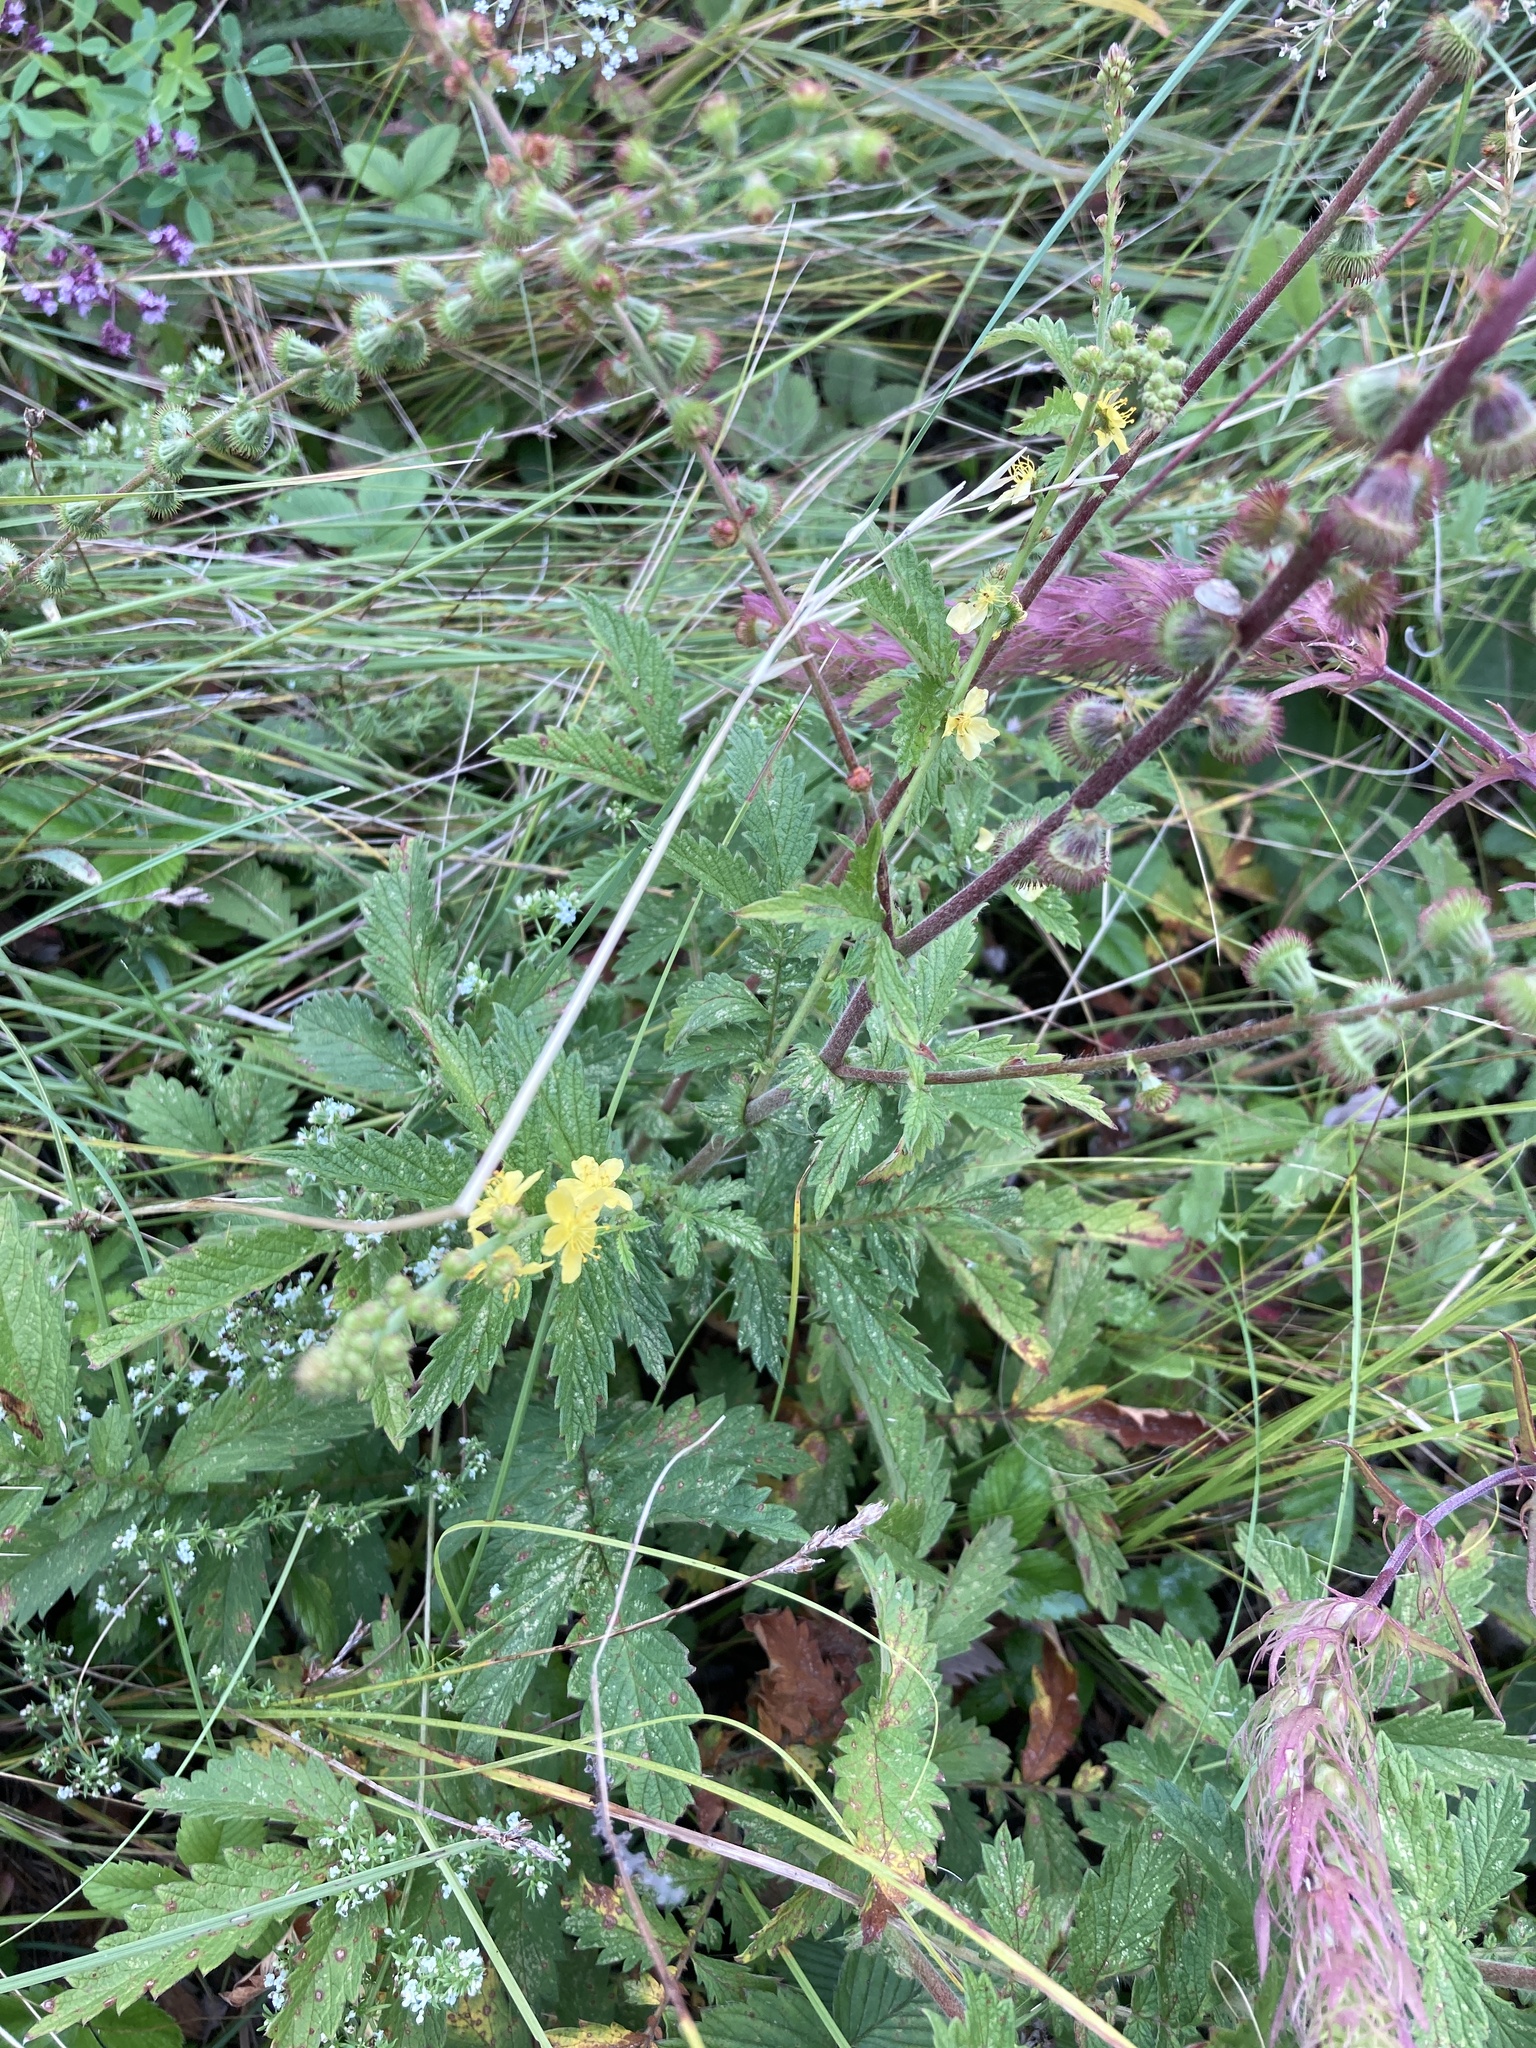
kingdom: Plantae
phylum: Tracheophyta
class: Magnoliopsida
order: Rosales
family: Rosaceae
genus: Agrimonia
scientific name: Agrimonia eupatoria
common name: Agrimony
